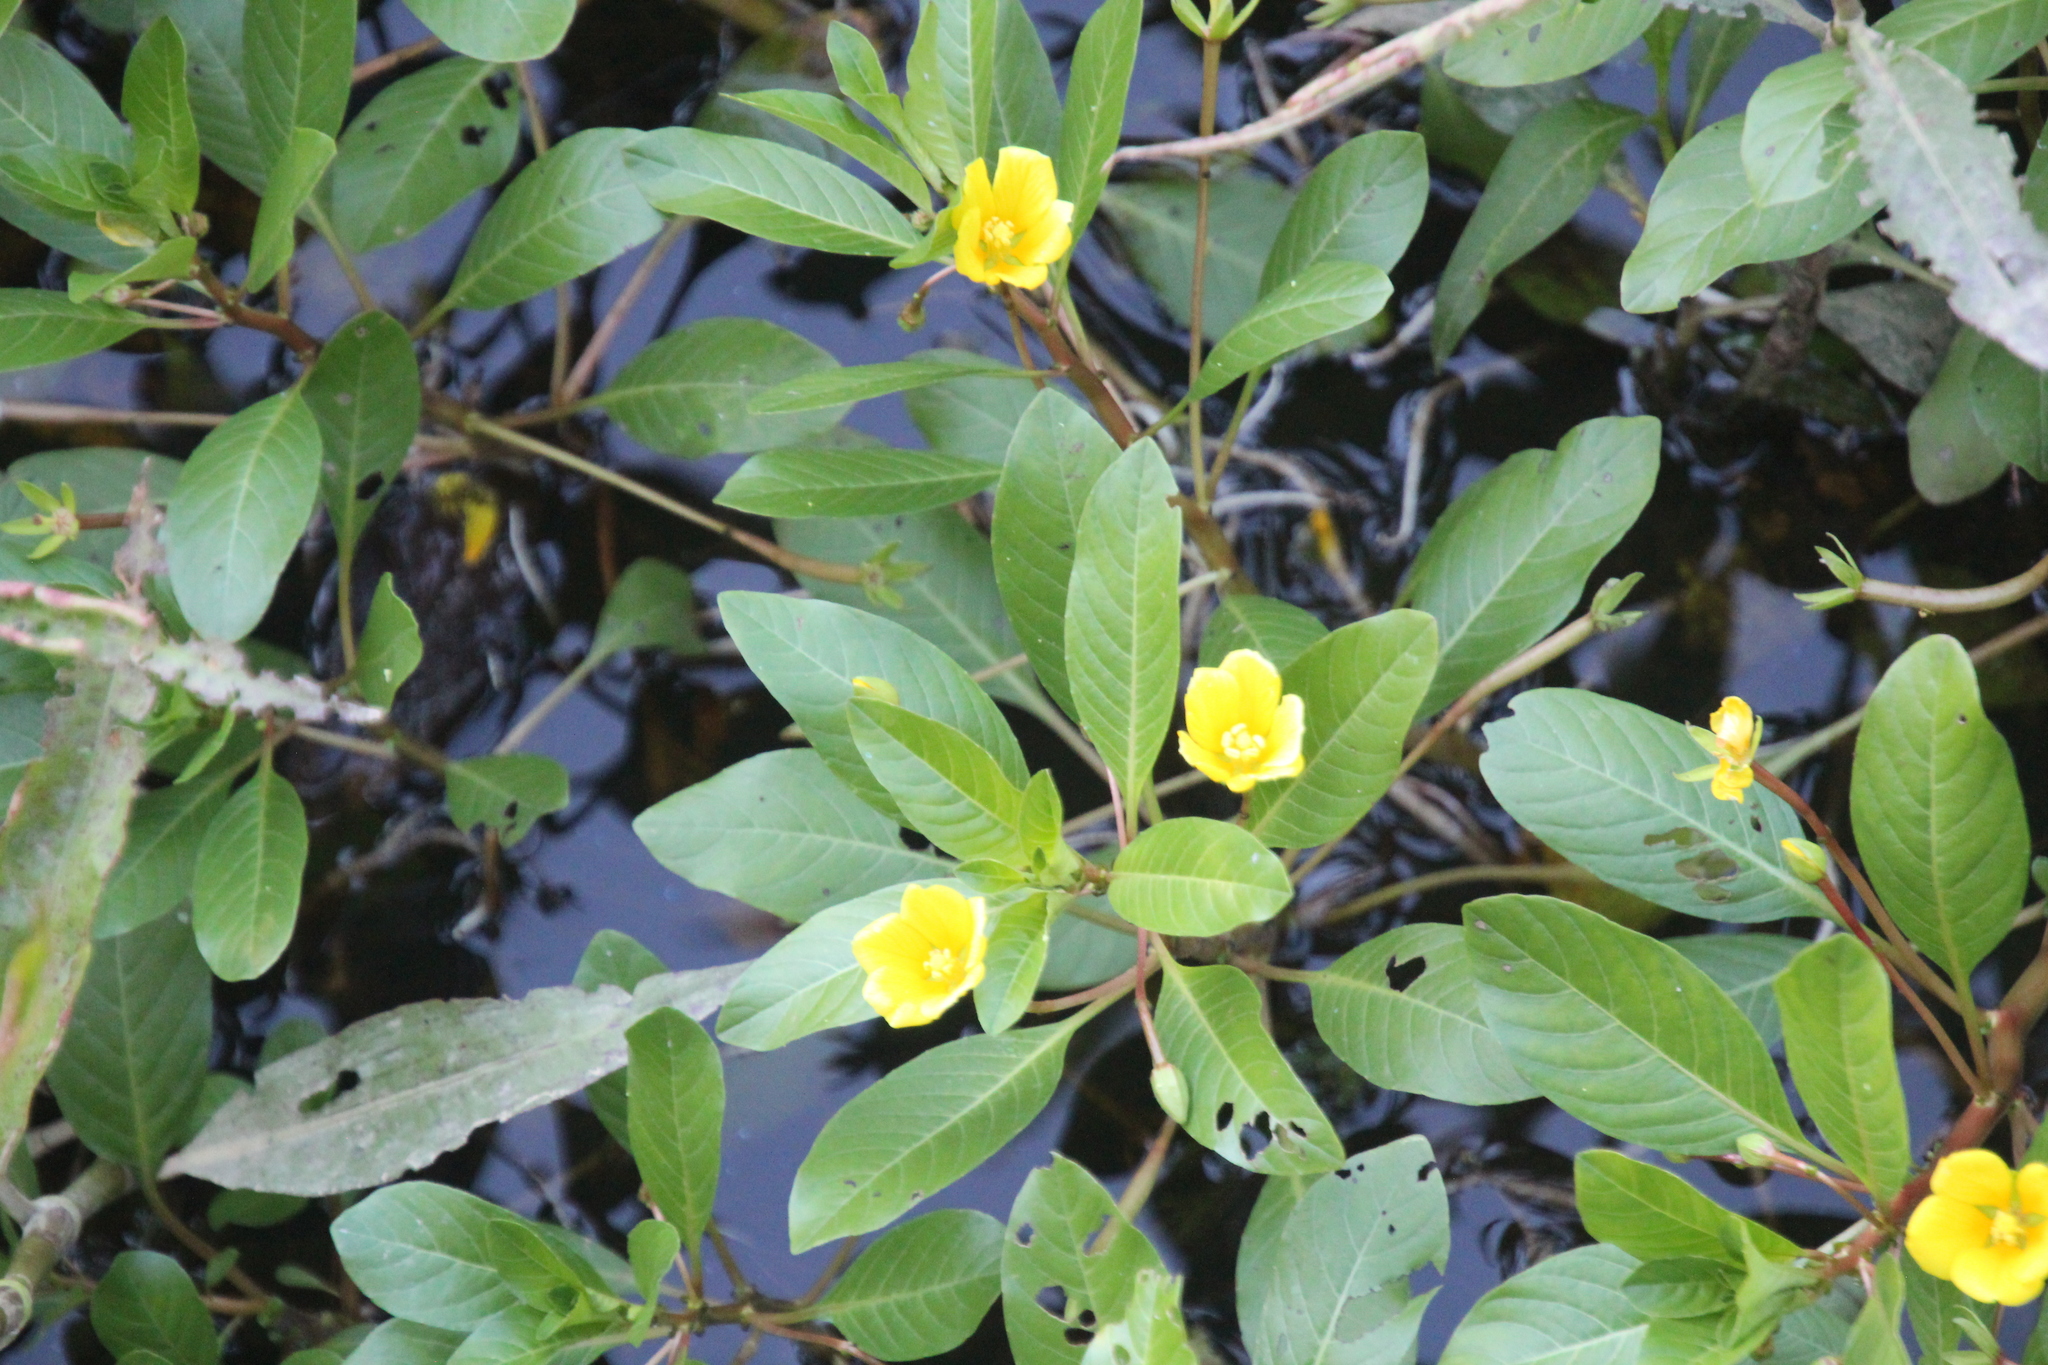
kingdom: Plantae
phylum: Tracheophyta
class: Magnoliopsida
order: Myrtales
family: Onagraceae
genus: Ludwigia
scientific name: Ludwigia peploides
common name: Floating primrose-willow
